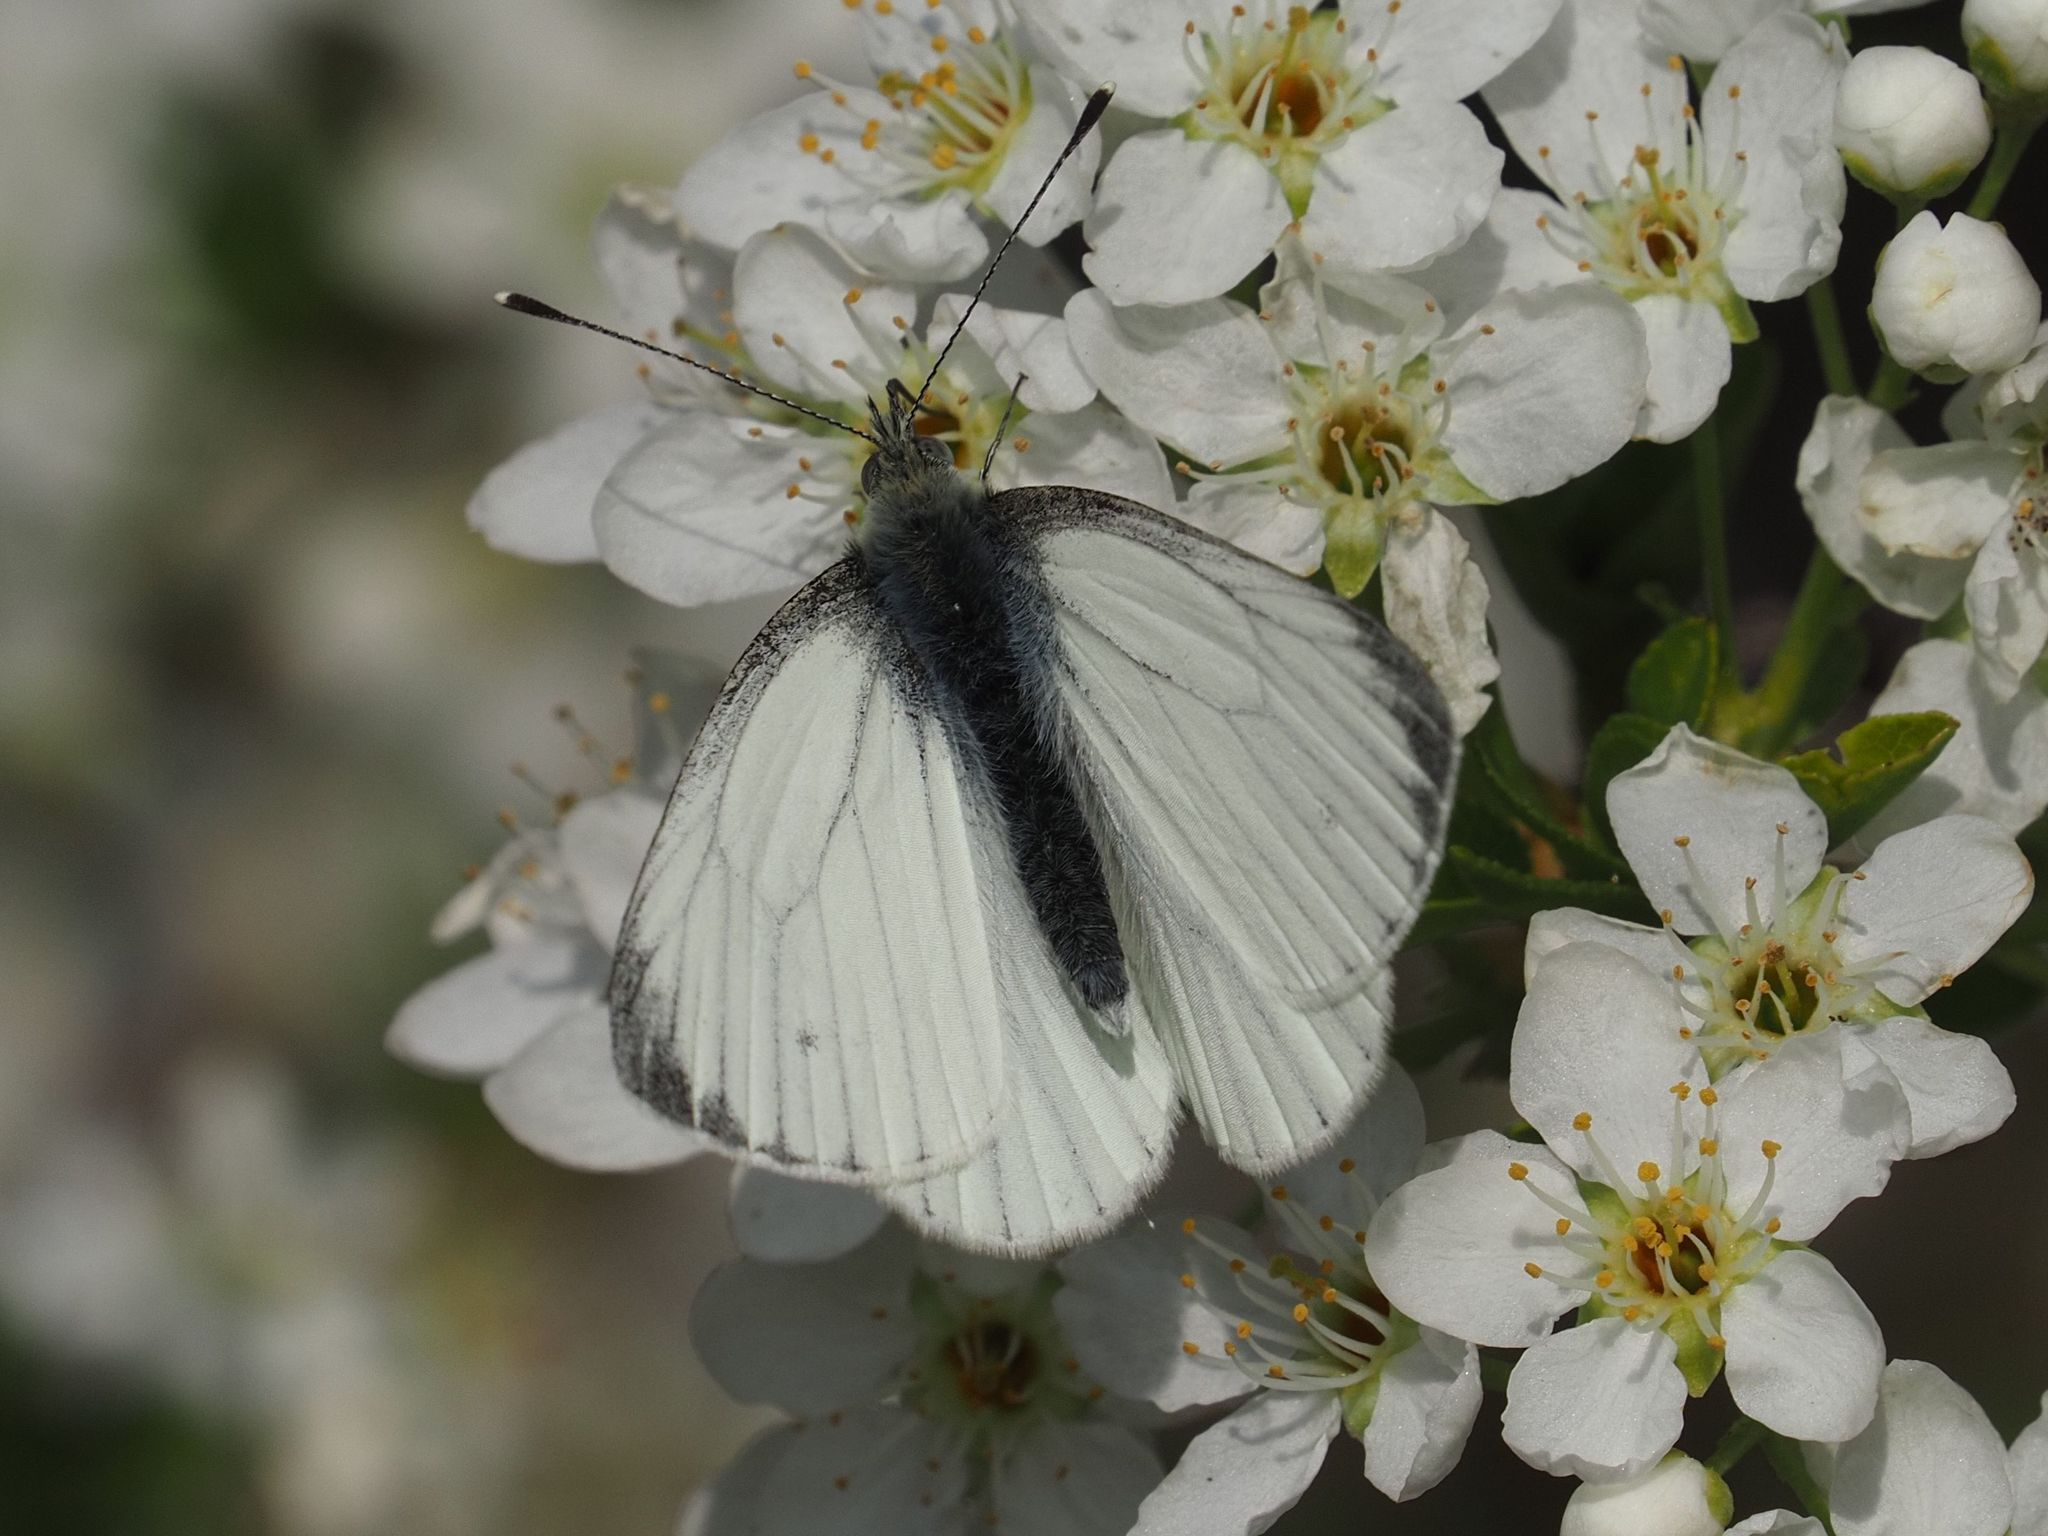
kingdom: Animalia
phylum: Arthropoda
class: Insecta
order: Lepidoptera
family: Pieridae
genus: Pieris
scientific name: Pieris napi
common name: Green-veined white
